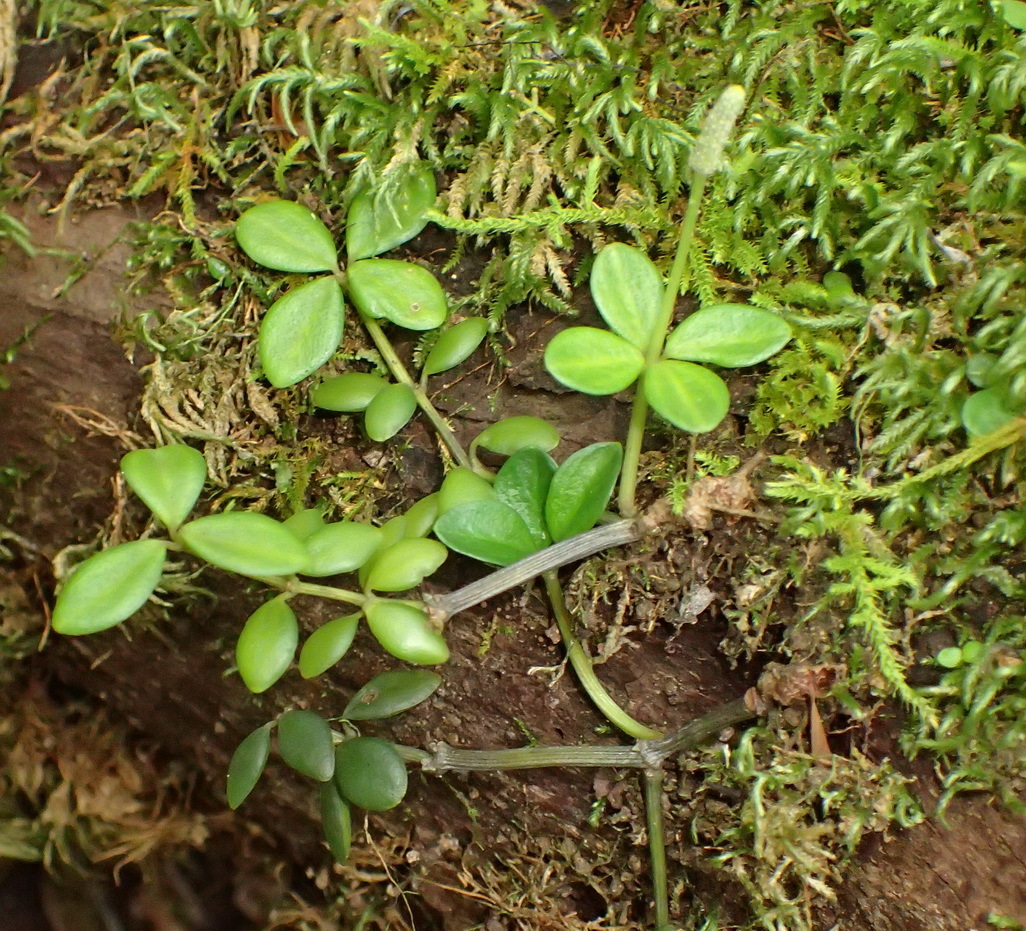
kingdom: Plantae
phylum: Tracheophyta
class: Magnoliopsida
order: Piperales
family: Piperaceae
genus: Peperomia
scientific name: Peperomia tetraphylla
